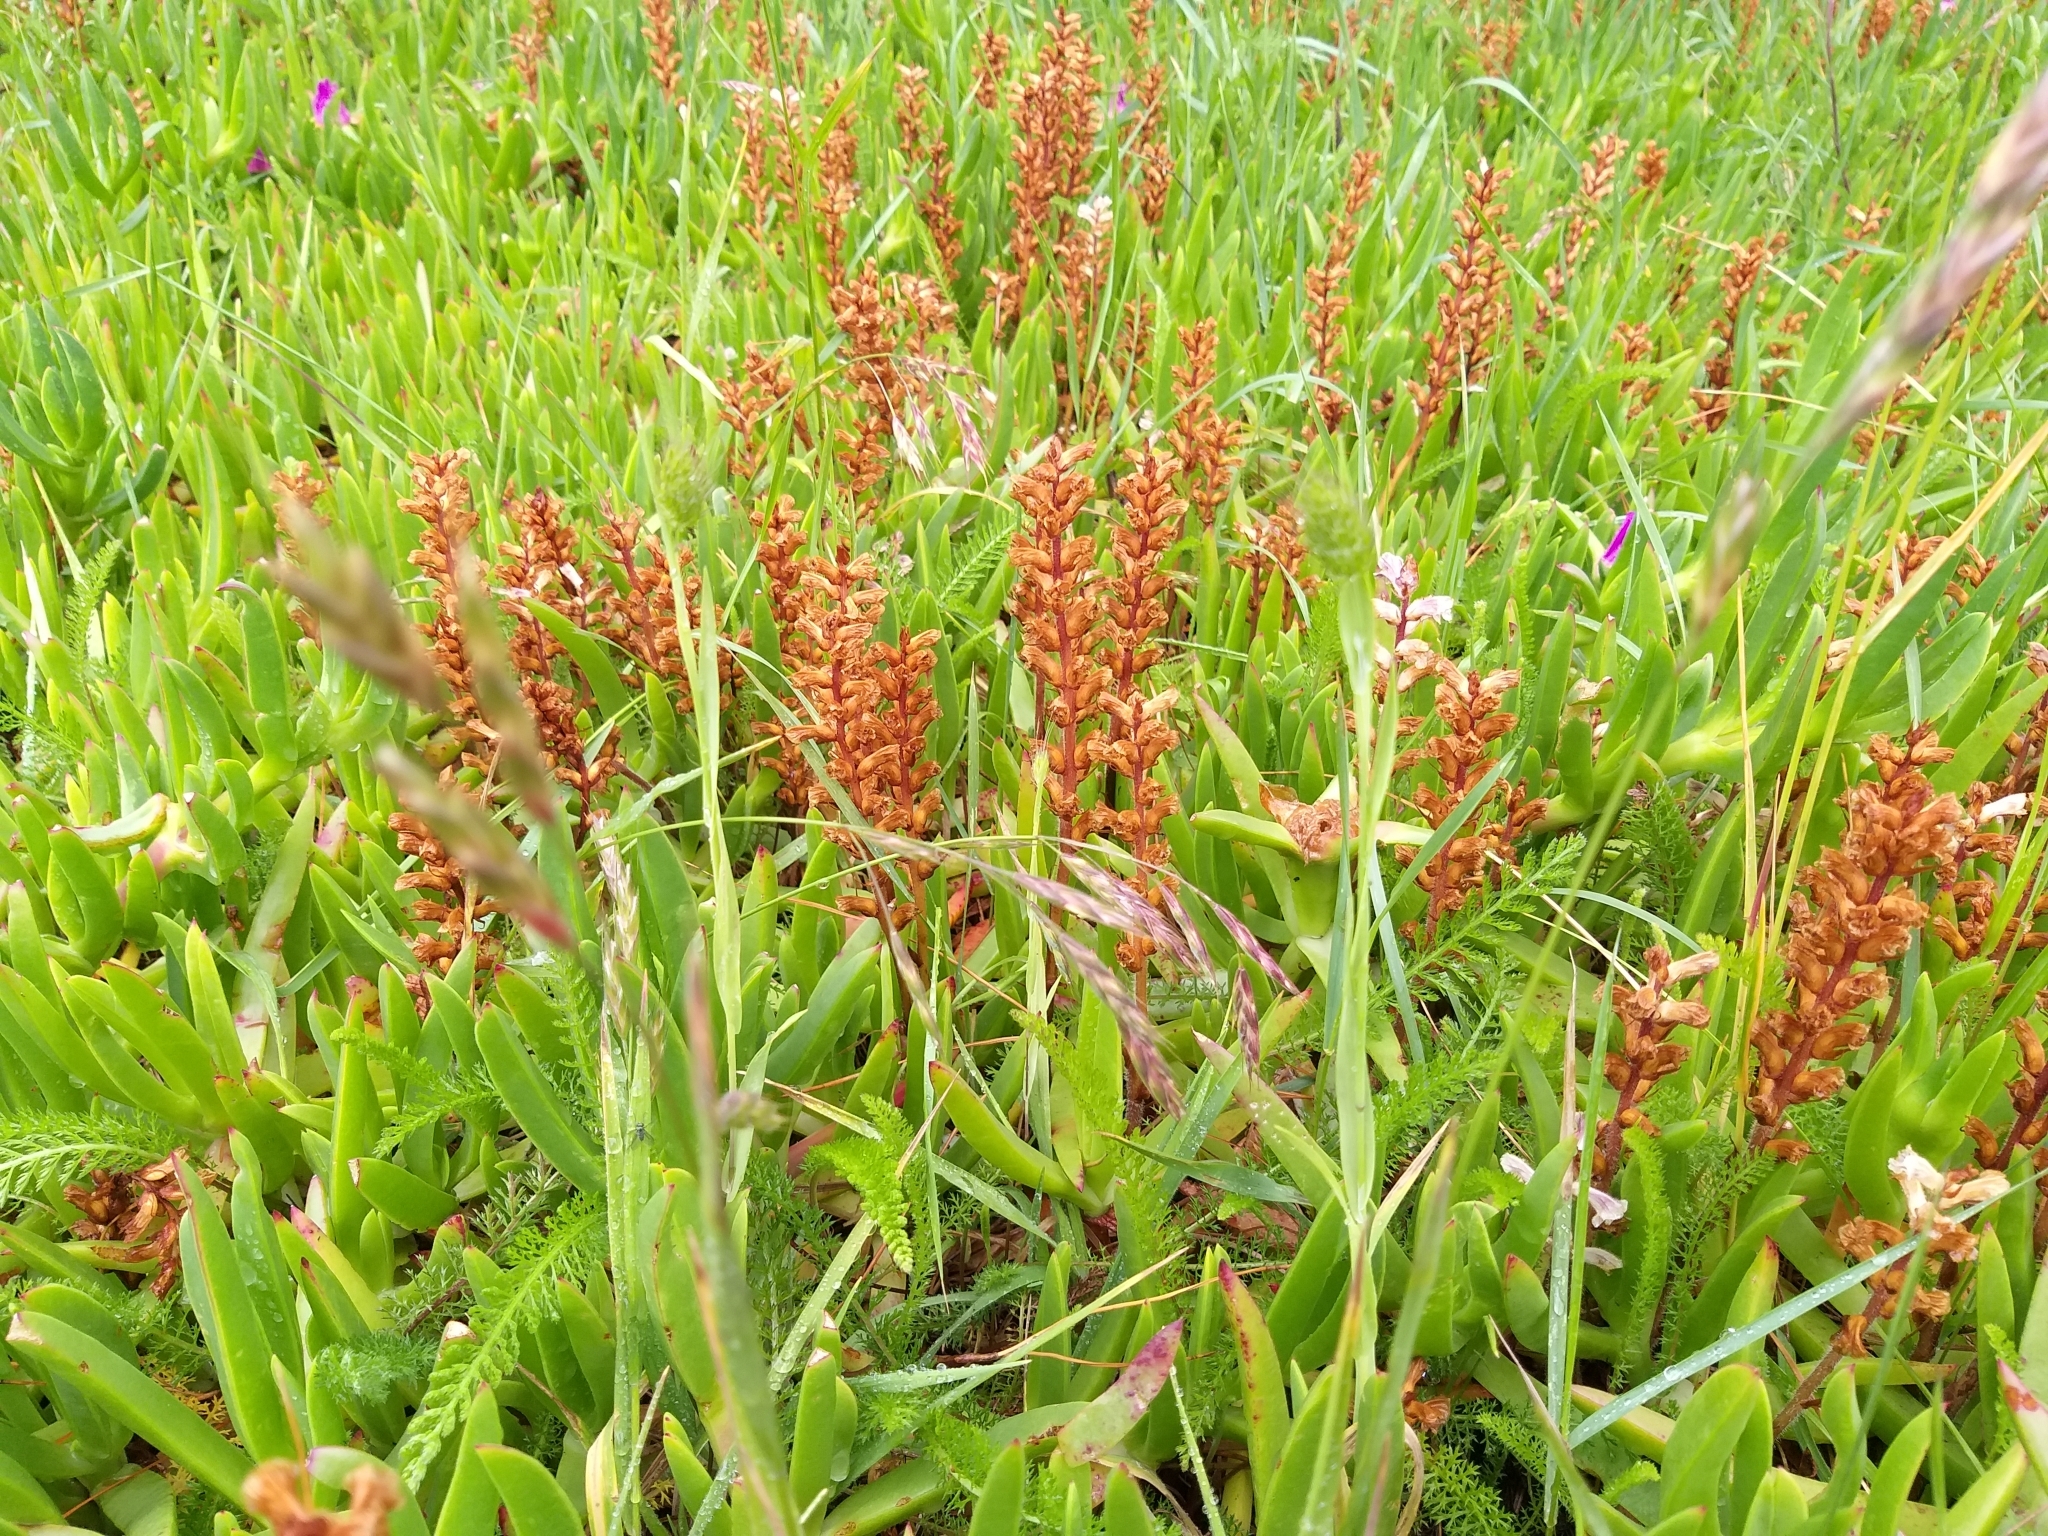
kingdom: Plantae
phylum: Tracheophyta
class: Magnoliopsida
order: Lamiales
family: Orobanchaceae
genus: Orobanche
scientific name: Orobanche minor
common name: Common broomrape
